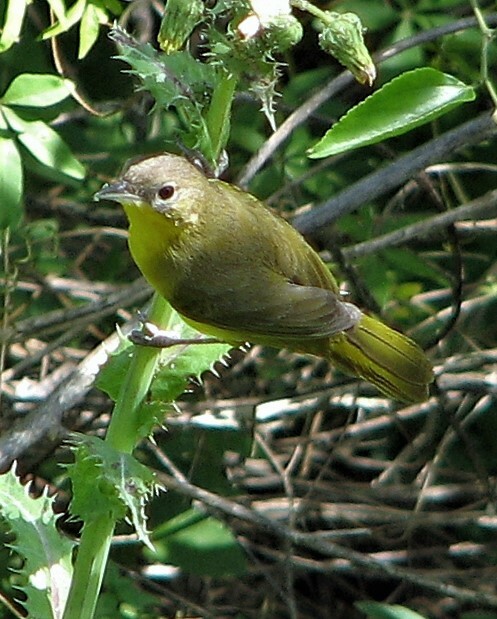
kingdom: Animalia
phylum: Chordata
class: Aves
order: Passeriformes
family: Parulidae
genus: Geothlypis
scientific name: Geothlypis velata
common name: Southern yellowthroat
